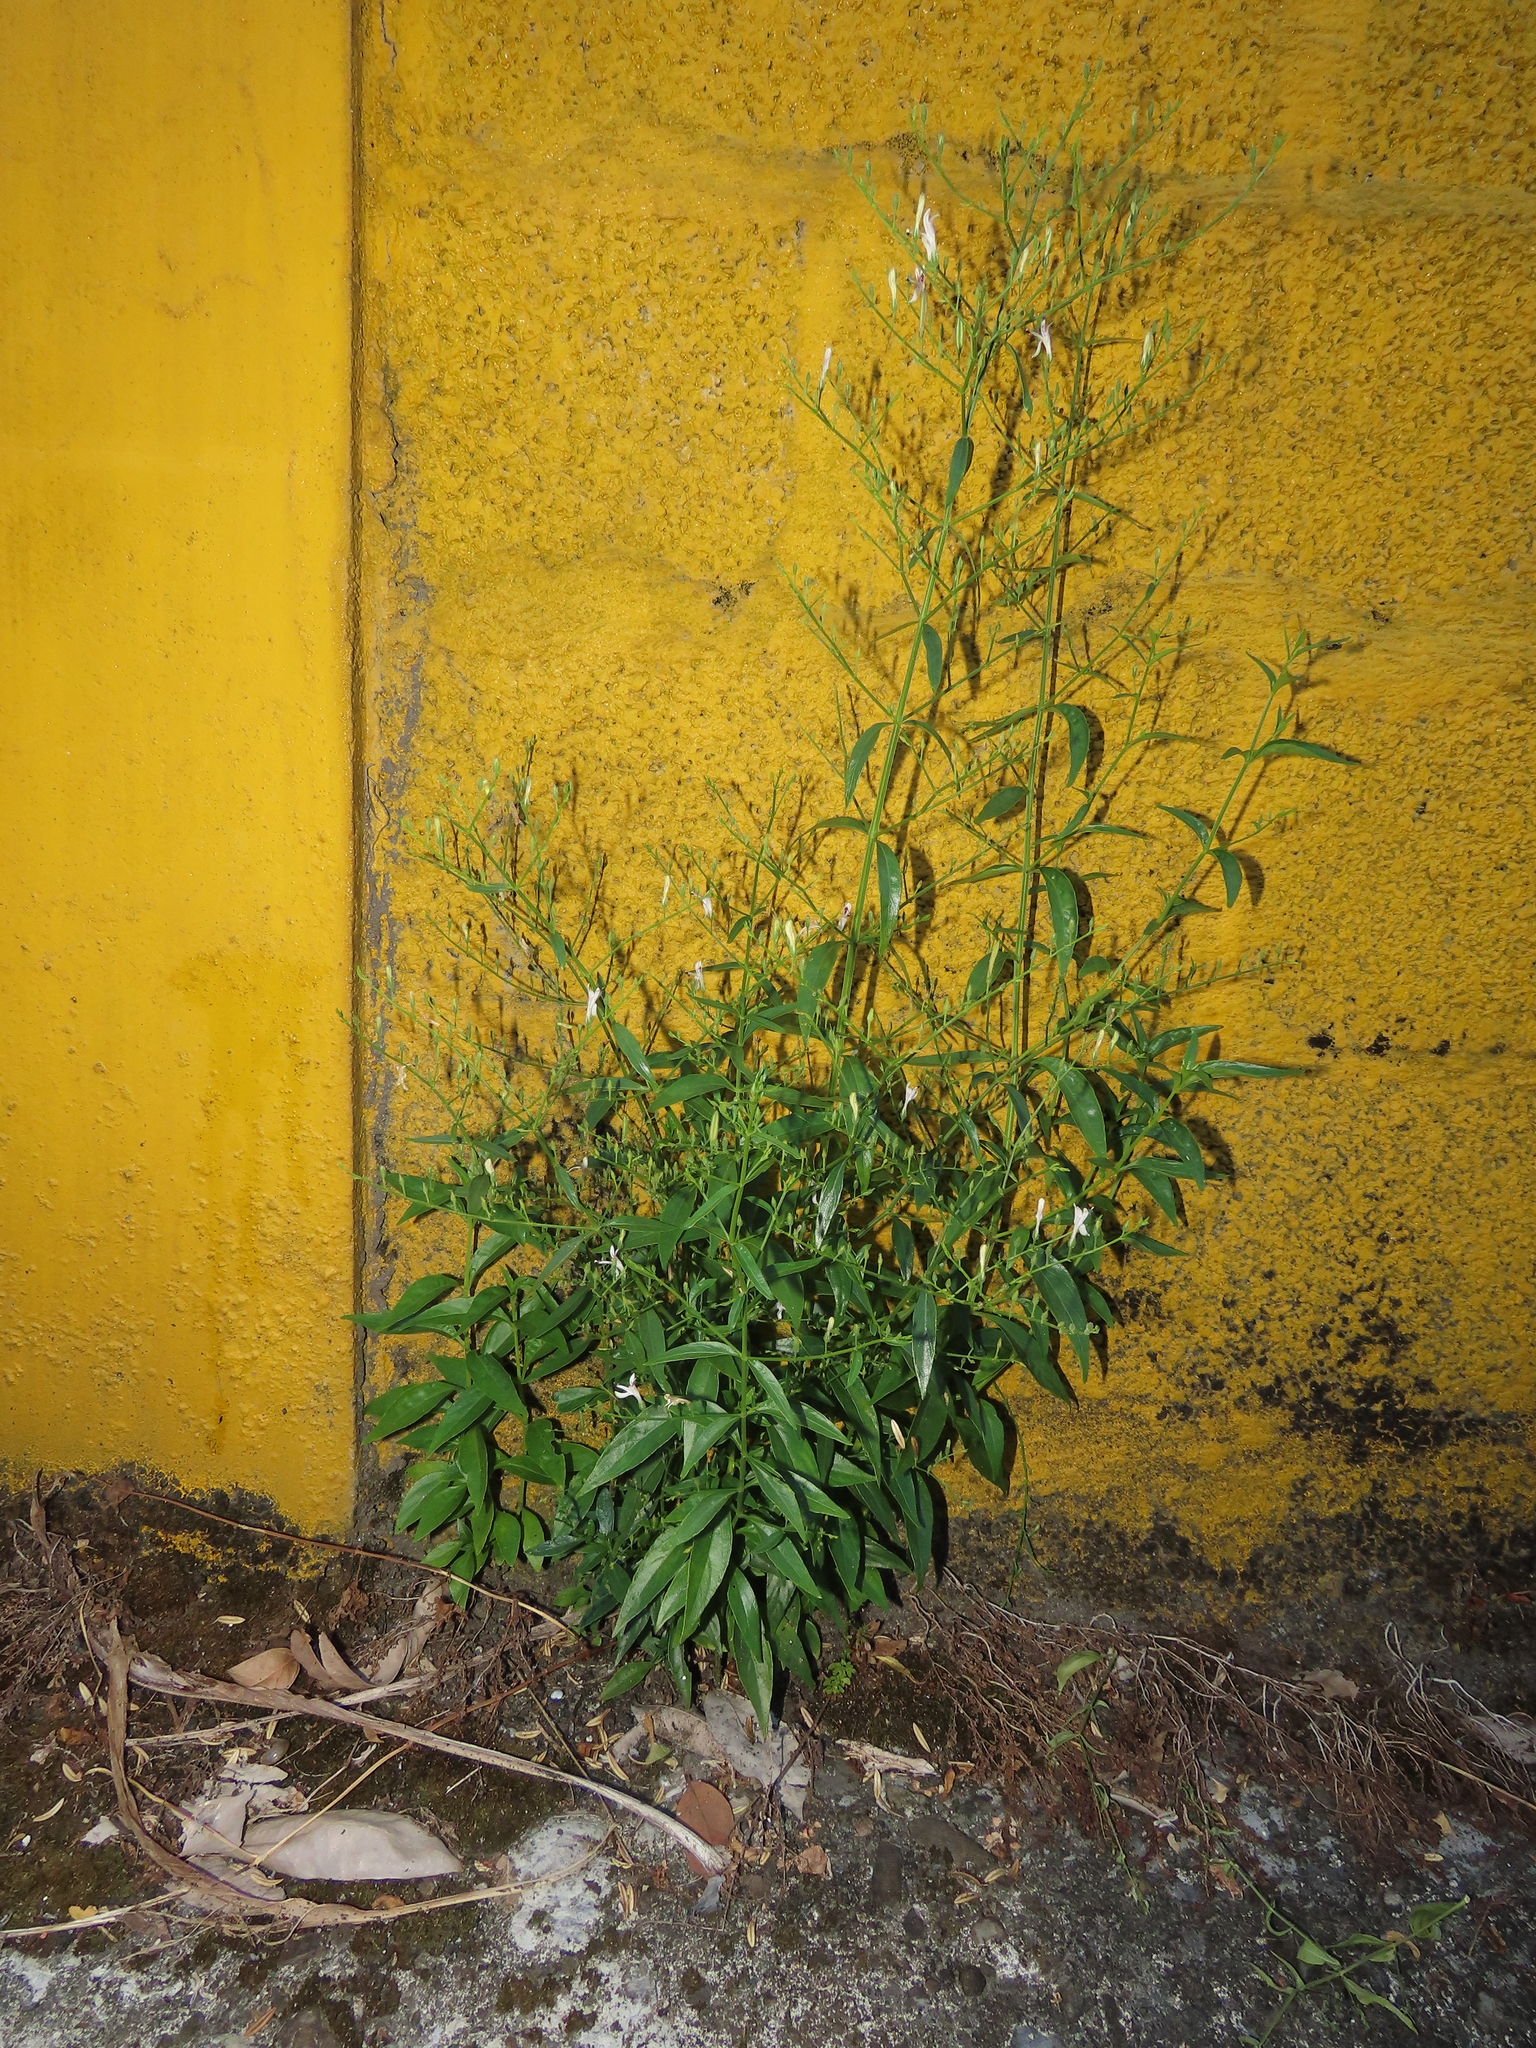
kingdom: Plantae
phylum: Tracheophyta
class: Magnoliopsida
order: Lamiales
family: Acanthaceae
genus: Andrographis
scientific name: Andrographis paniculata
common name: Green chireta
